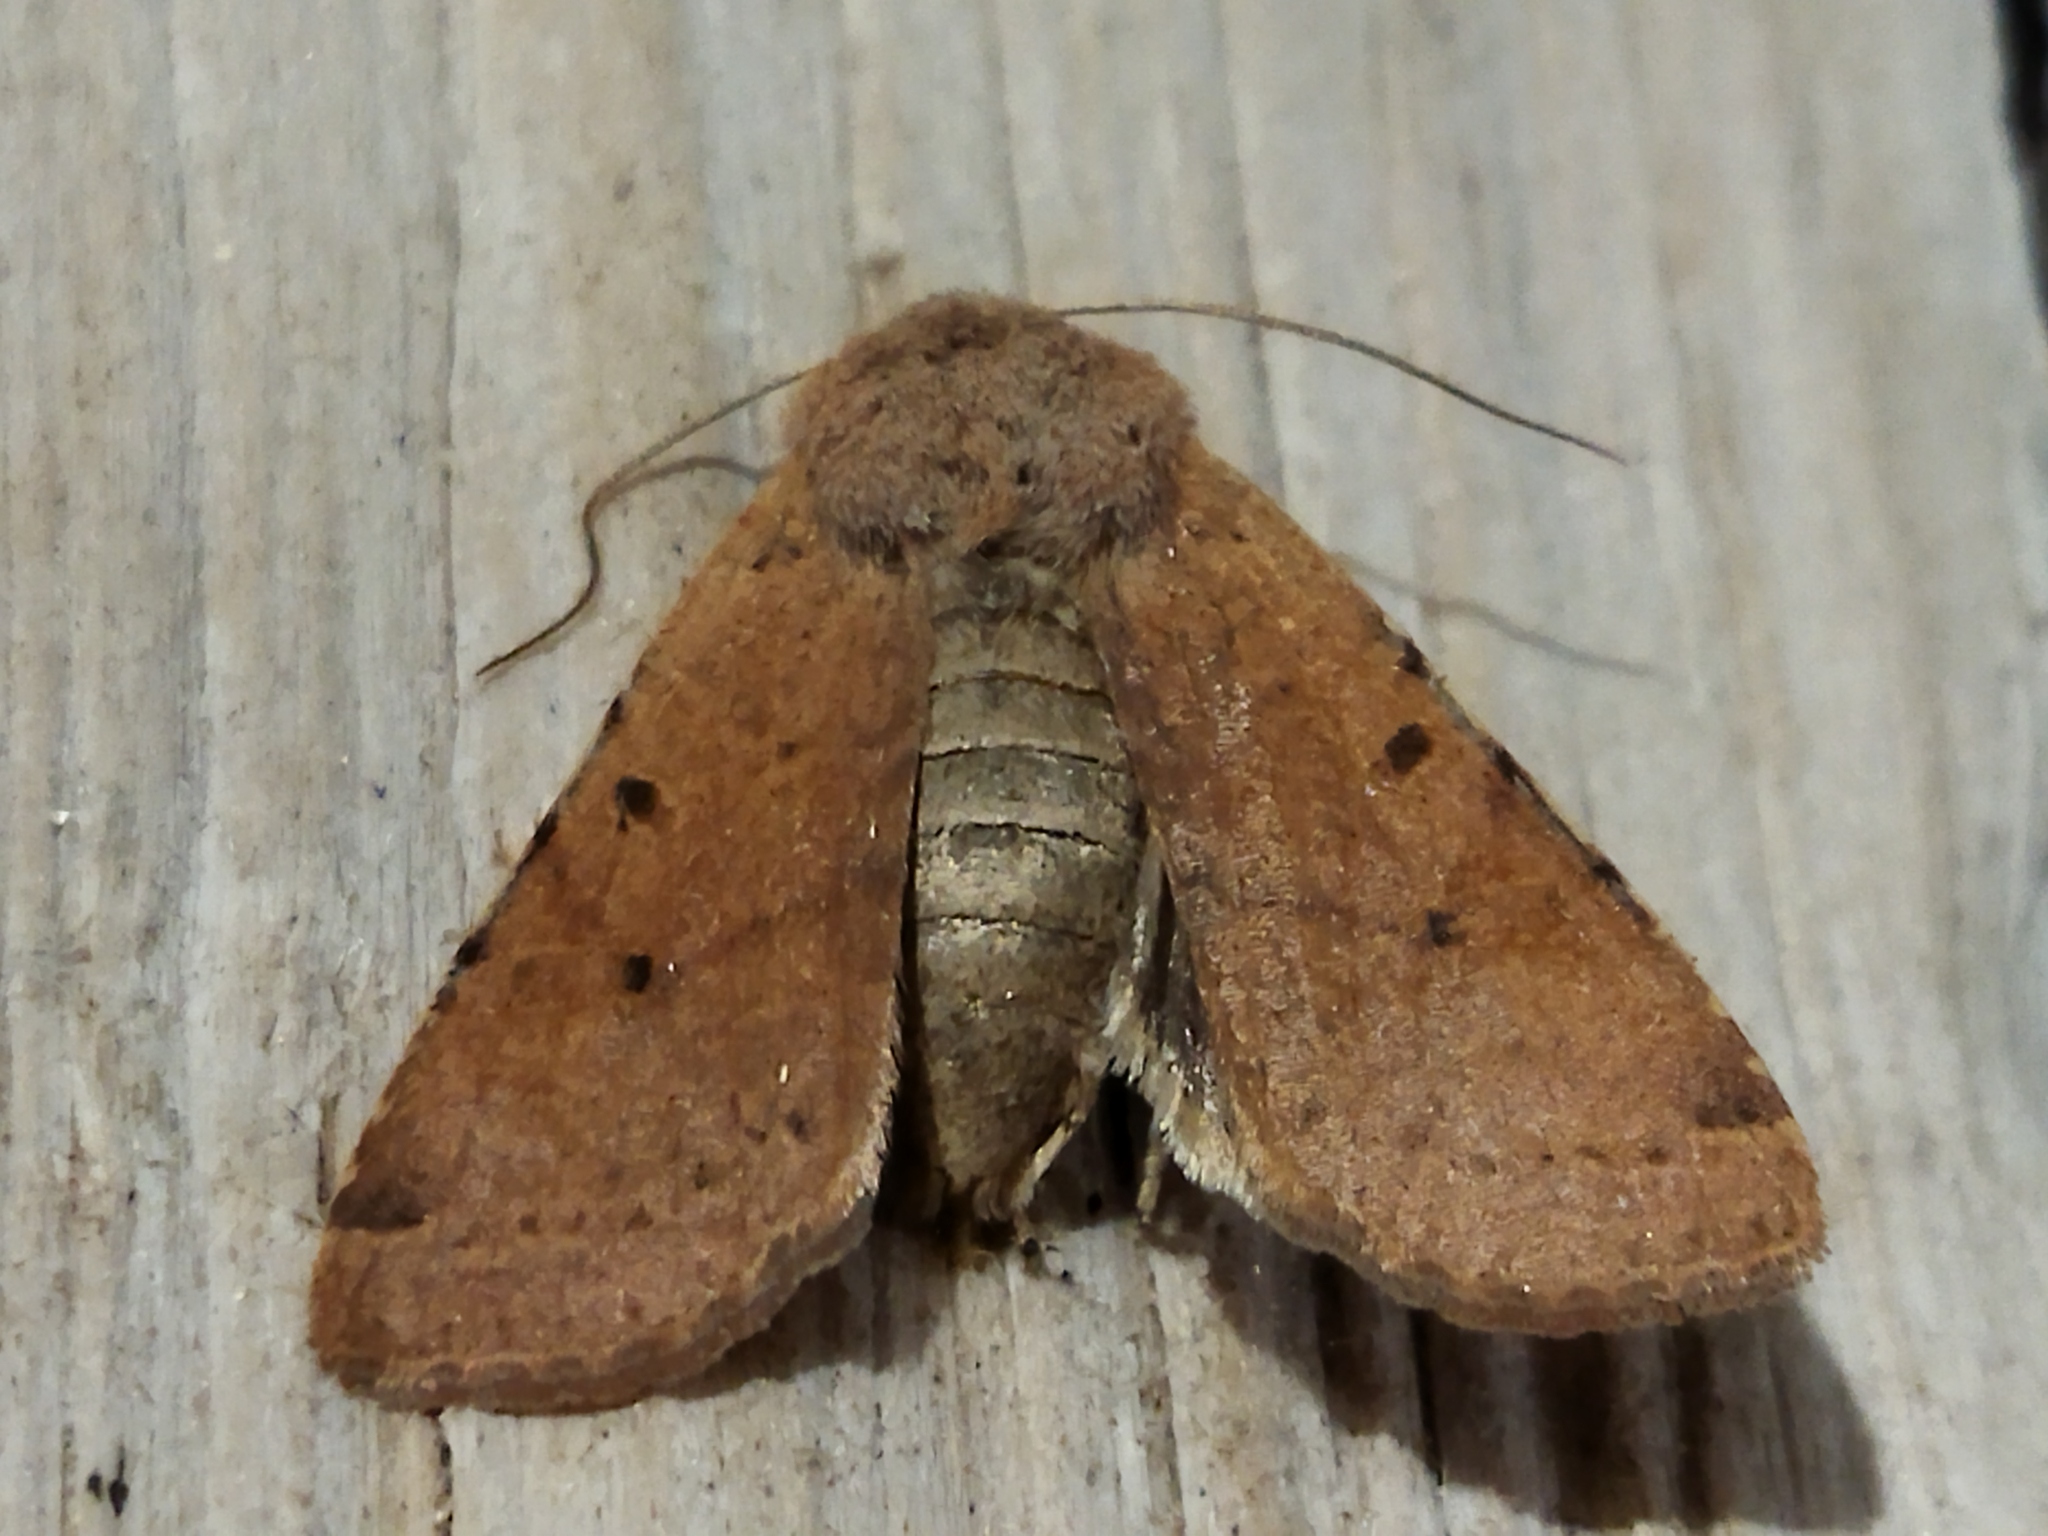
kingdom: Animalia
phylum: Arthropoda
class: Insecta
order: Lepidoptera
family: Noctuidae
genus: Agrochola
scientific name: Agrochola lychnidis
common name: Beaded chestnut
